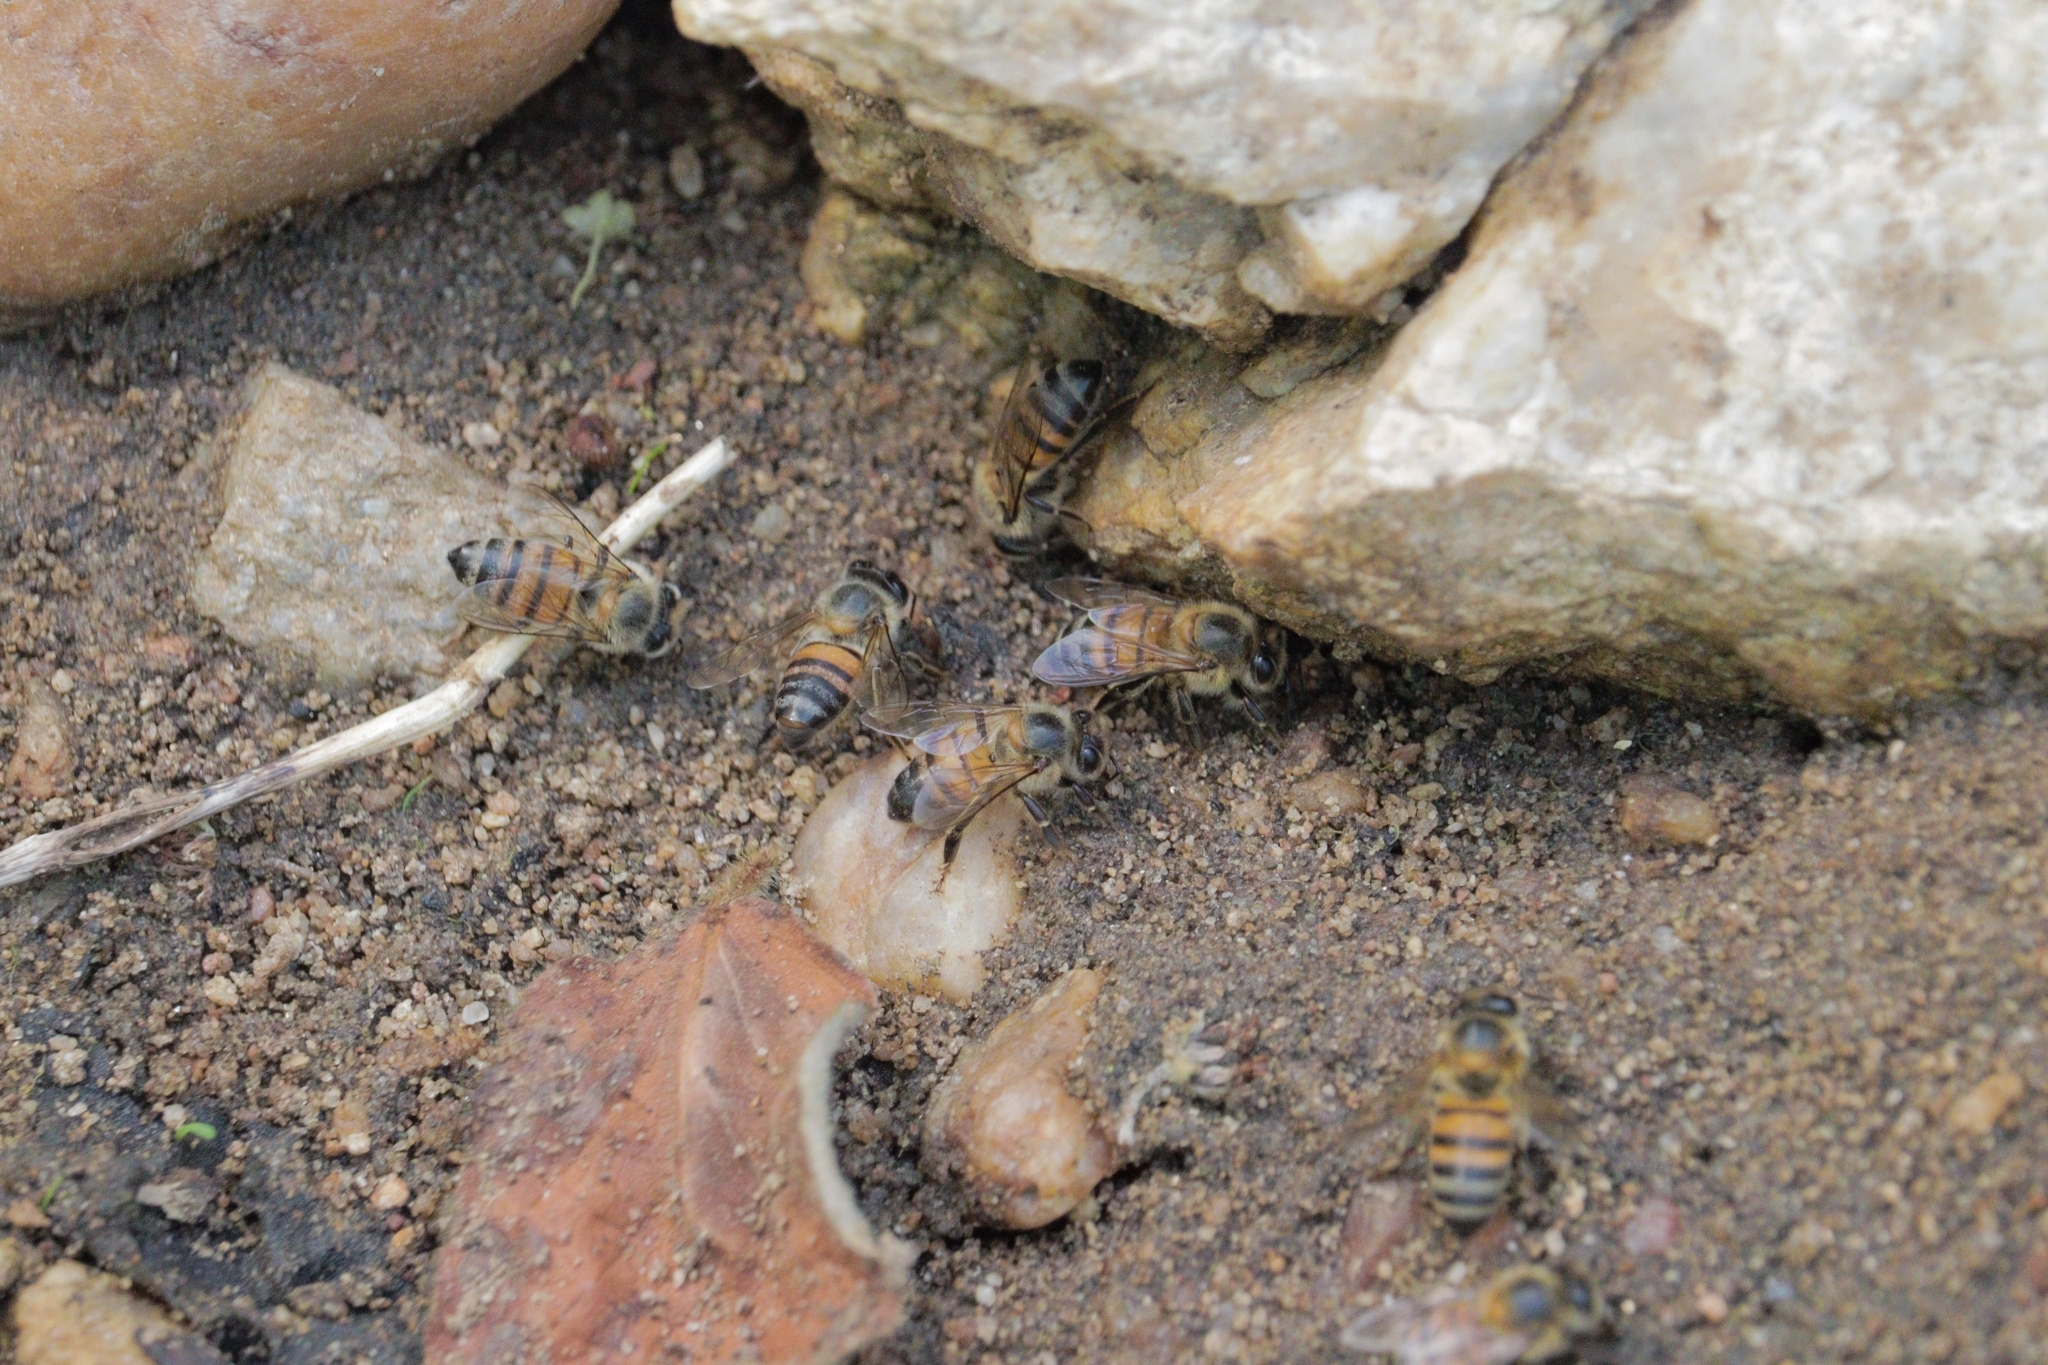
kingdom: Animalia
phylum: Arthropoda
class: Insecta
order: Hymenoptera
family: Apidae
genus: Apis
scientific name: Apis mellifera
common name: Honey bee
